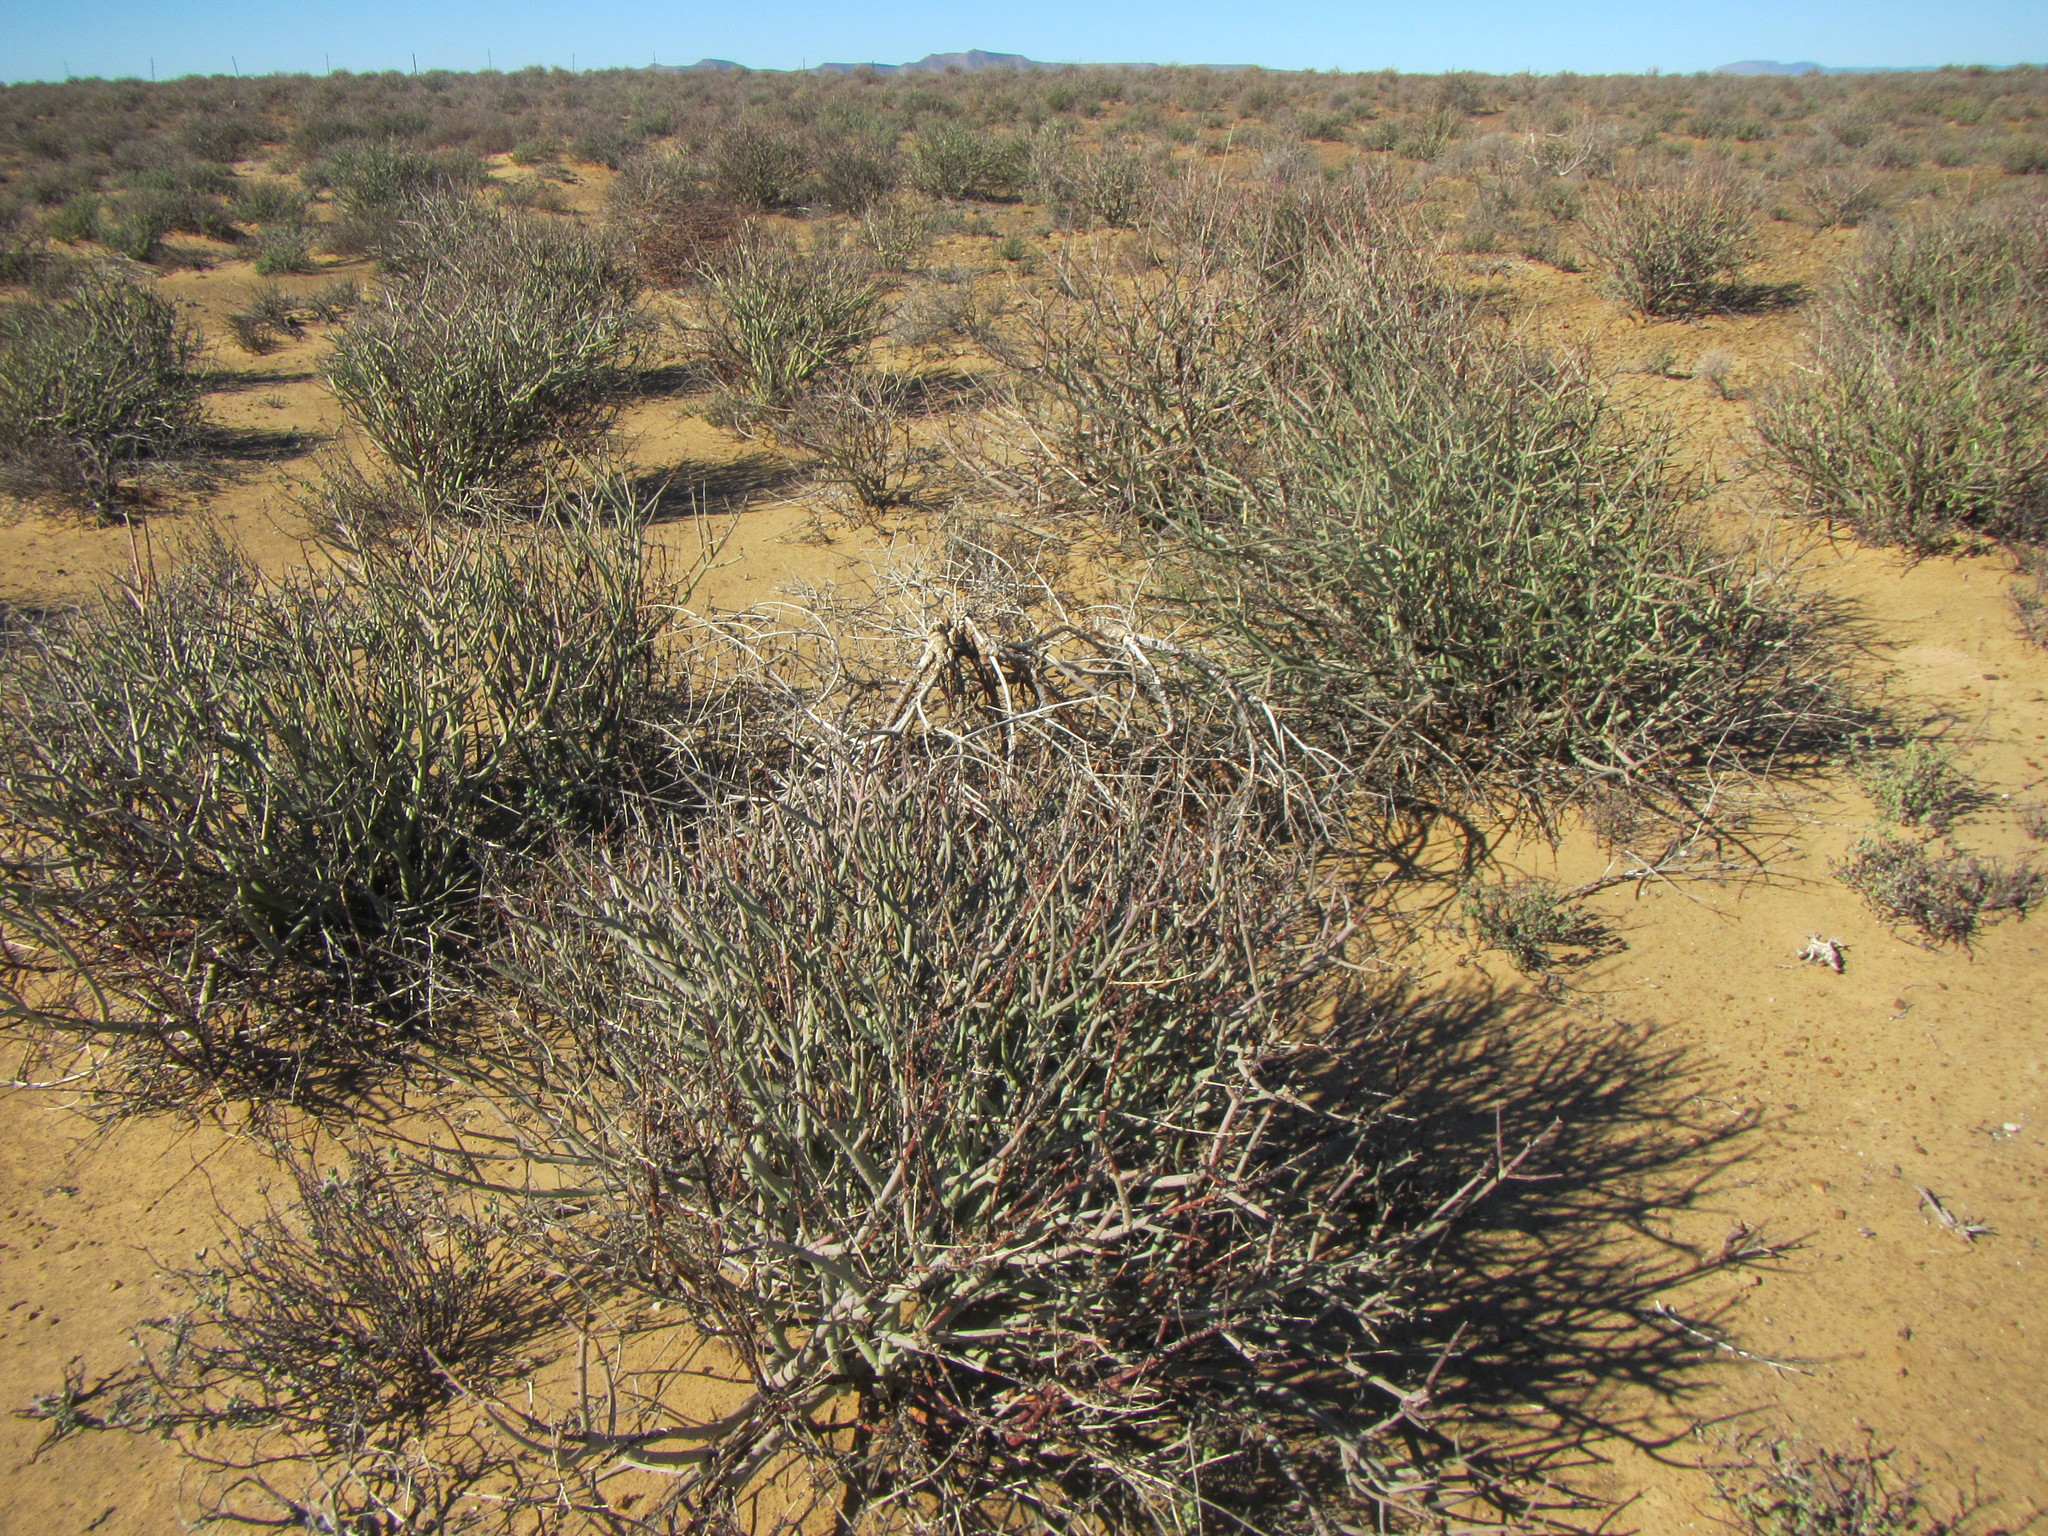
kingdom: Plantae
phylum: Tracheophyta
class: Magnoliopsida
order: Malpighiales
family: Euphorbiaceae
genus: Euphorbia
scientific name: Euphorbia rhombifolia
